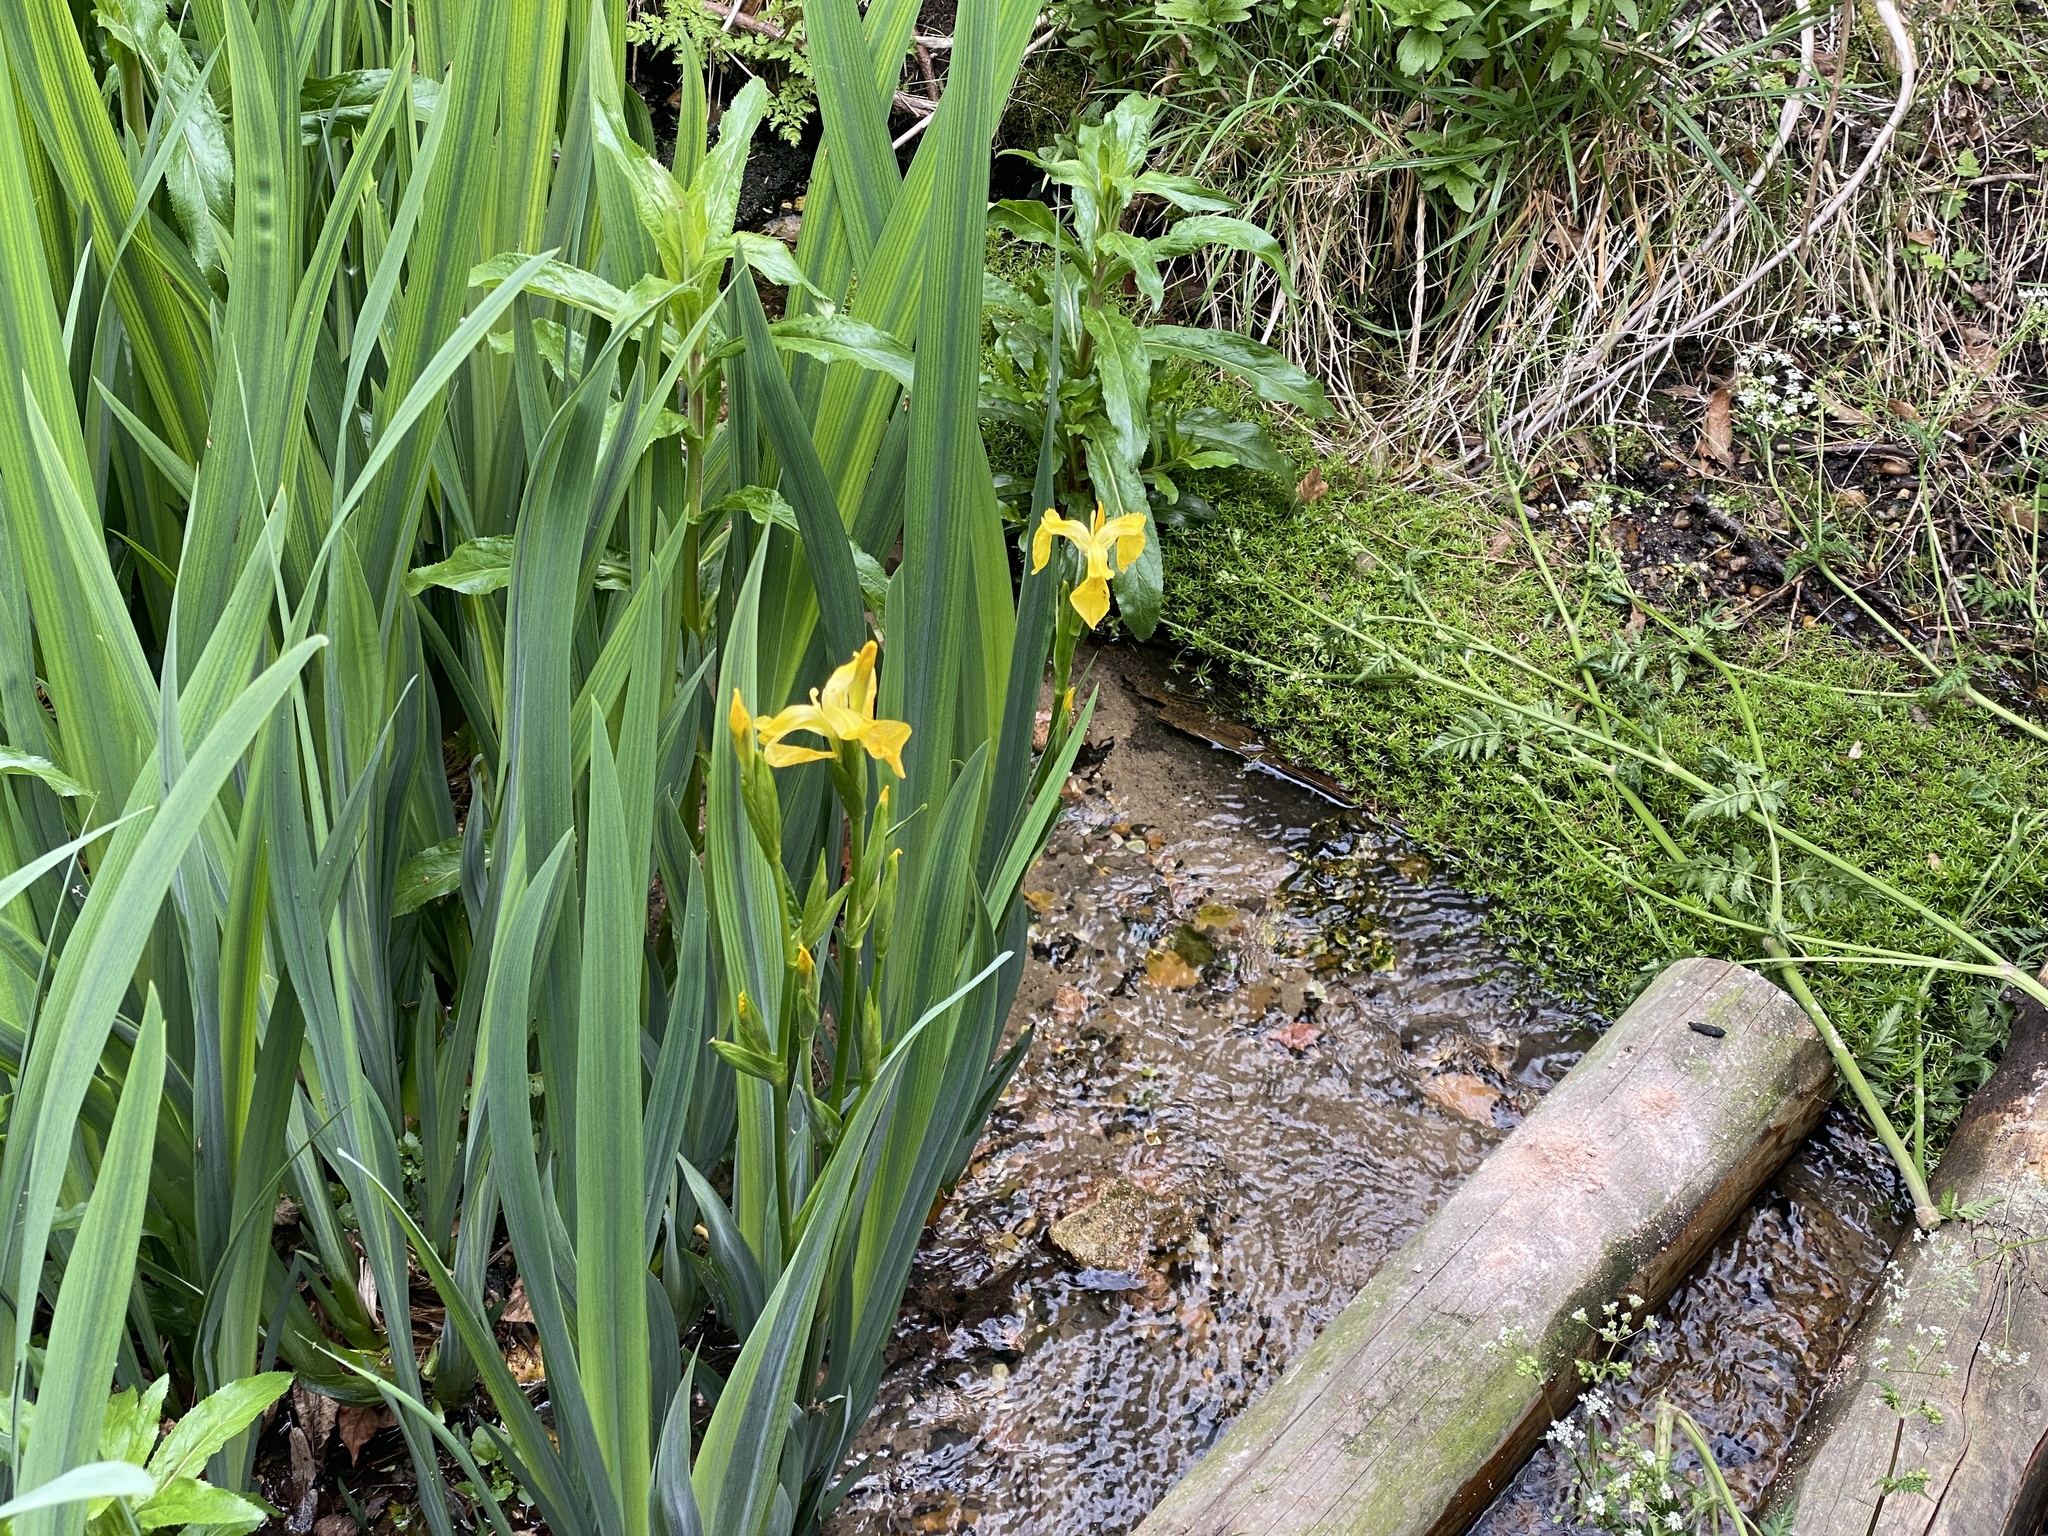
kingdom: Plantae
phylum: Tracheophyta
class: Liliopsida
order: Asparagales
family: Iridaceae
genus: Iris
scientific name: Iris pseudacorus
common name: Yellow flag
